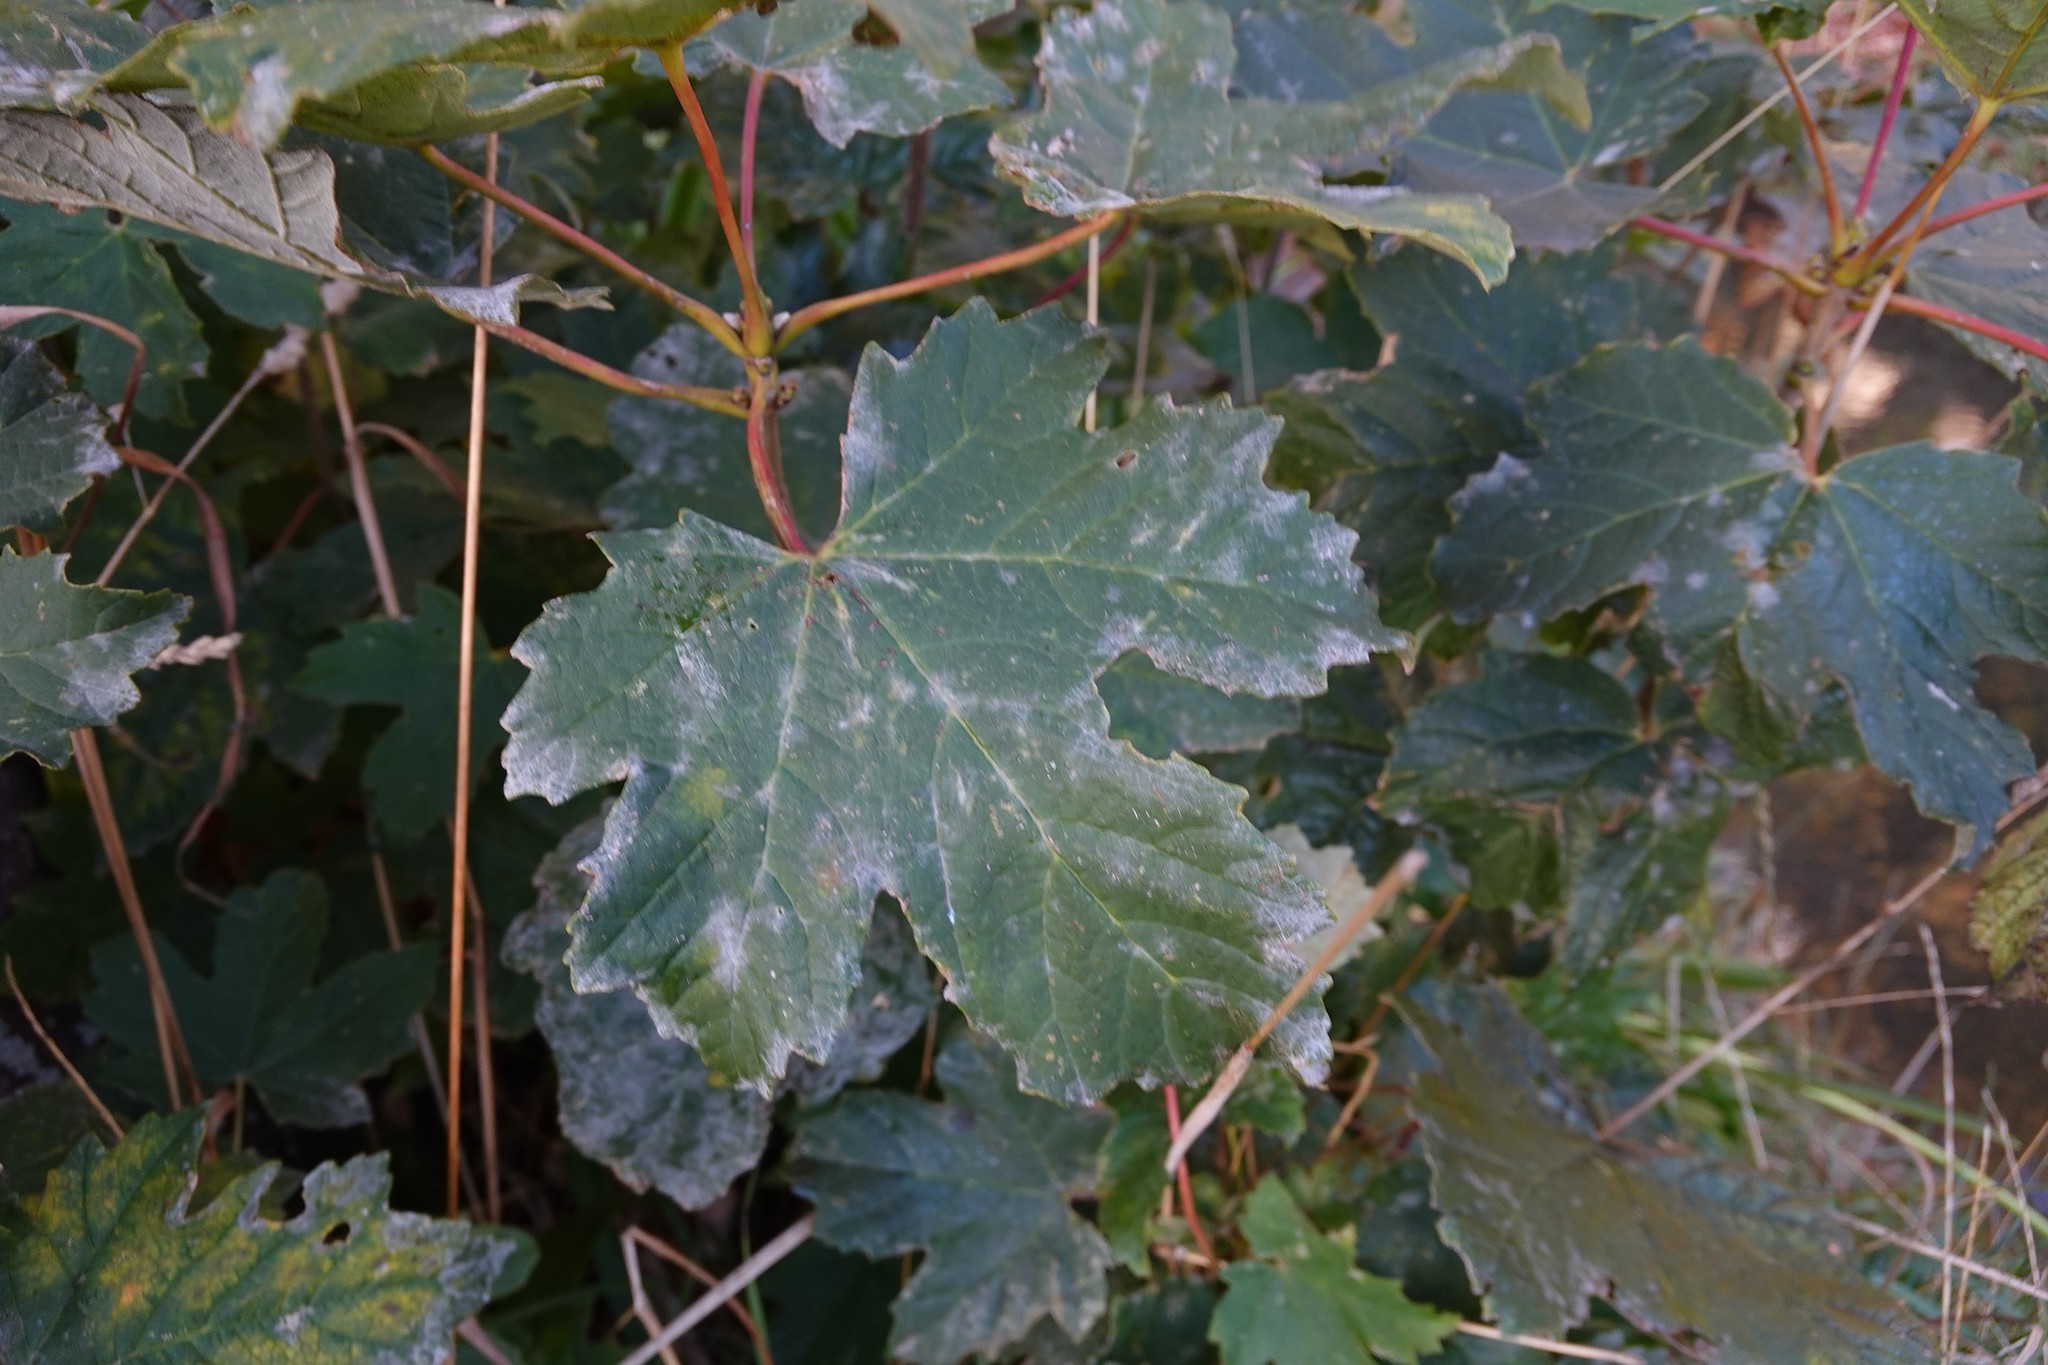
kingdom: Fungi
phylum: Ascomycota
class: Leotiomycetes
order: Helotiales
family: Erysiphaceae
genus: Sawadaea
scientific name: Sawadaea bicornis
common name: Maple mildew
